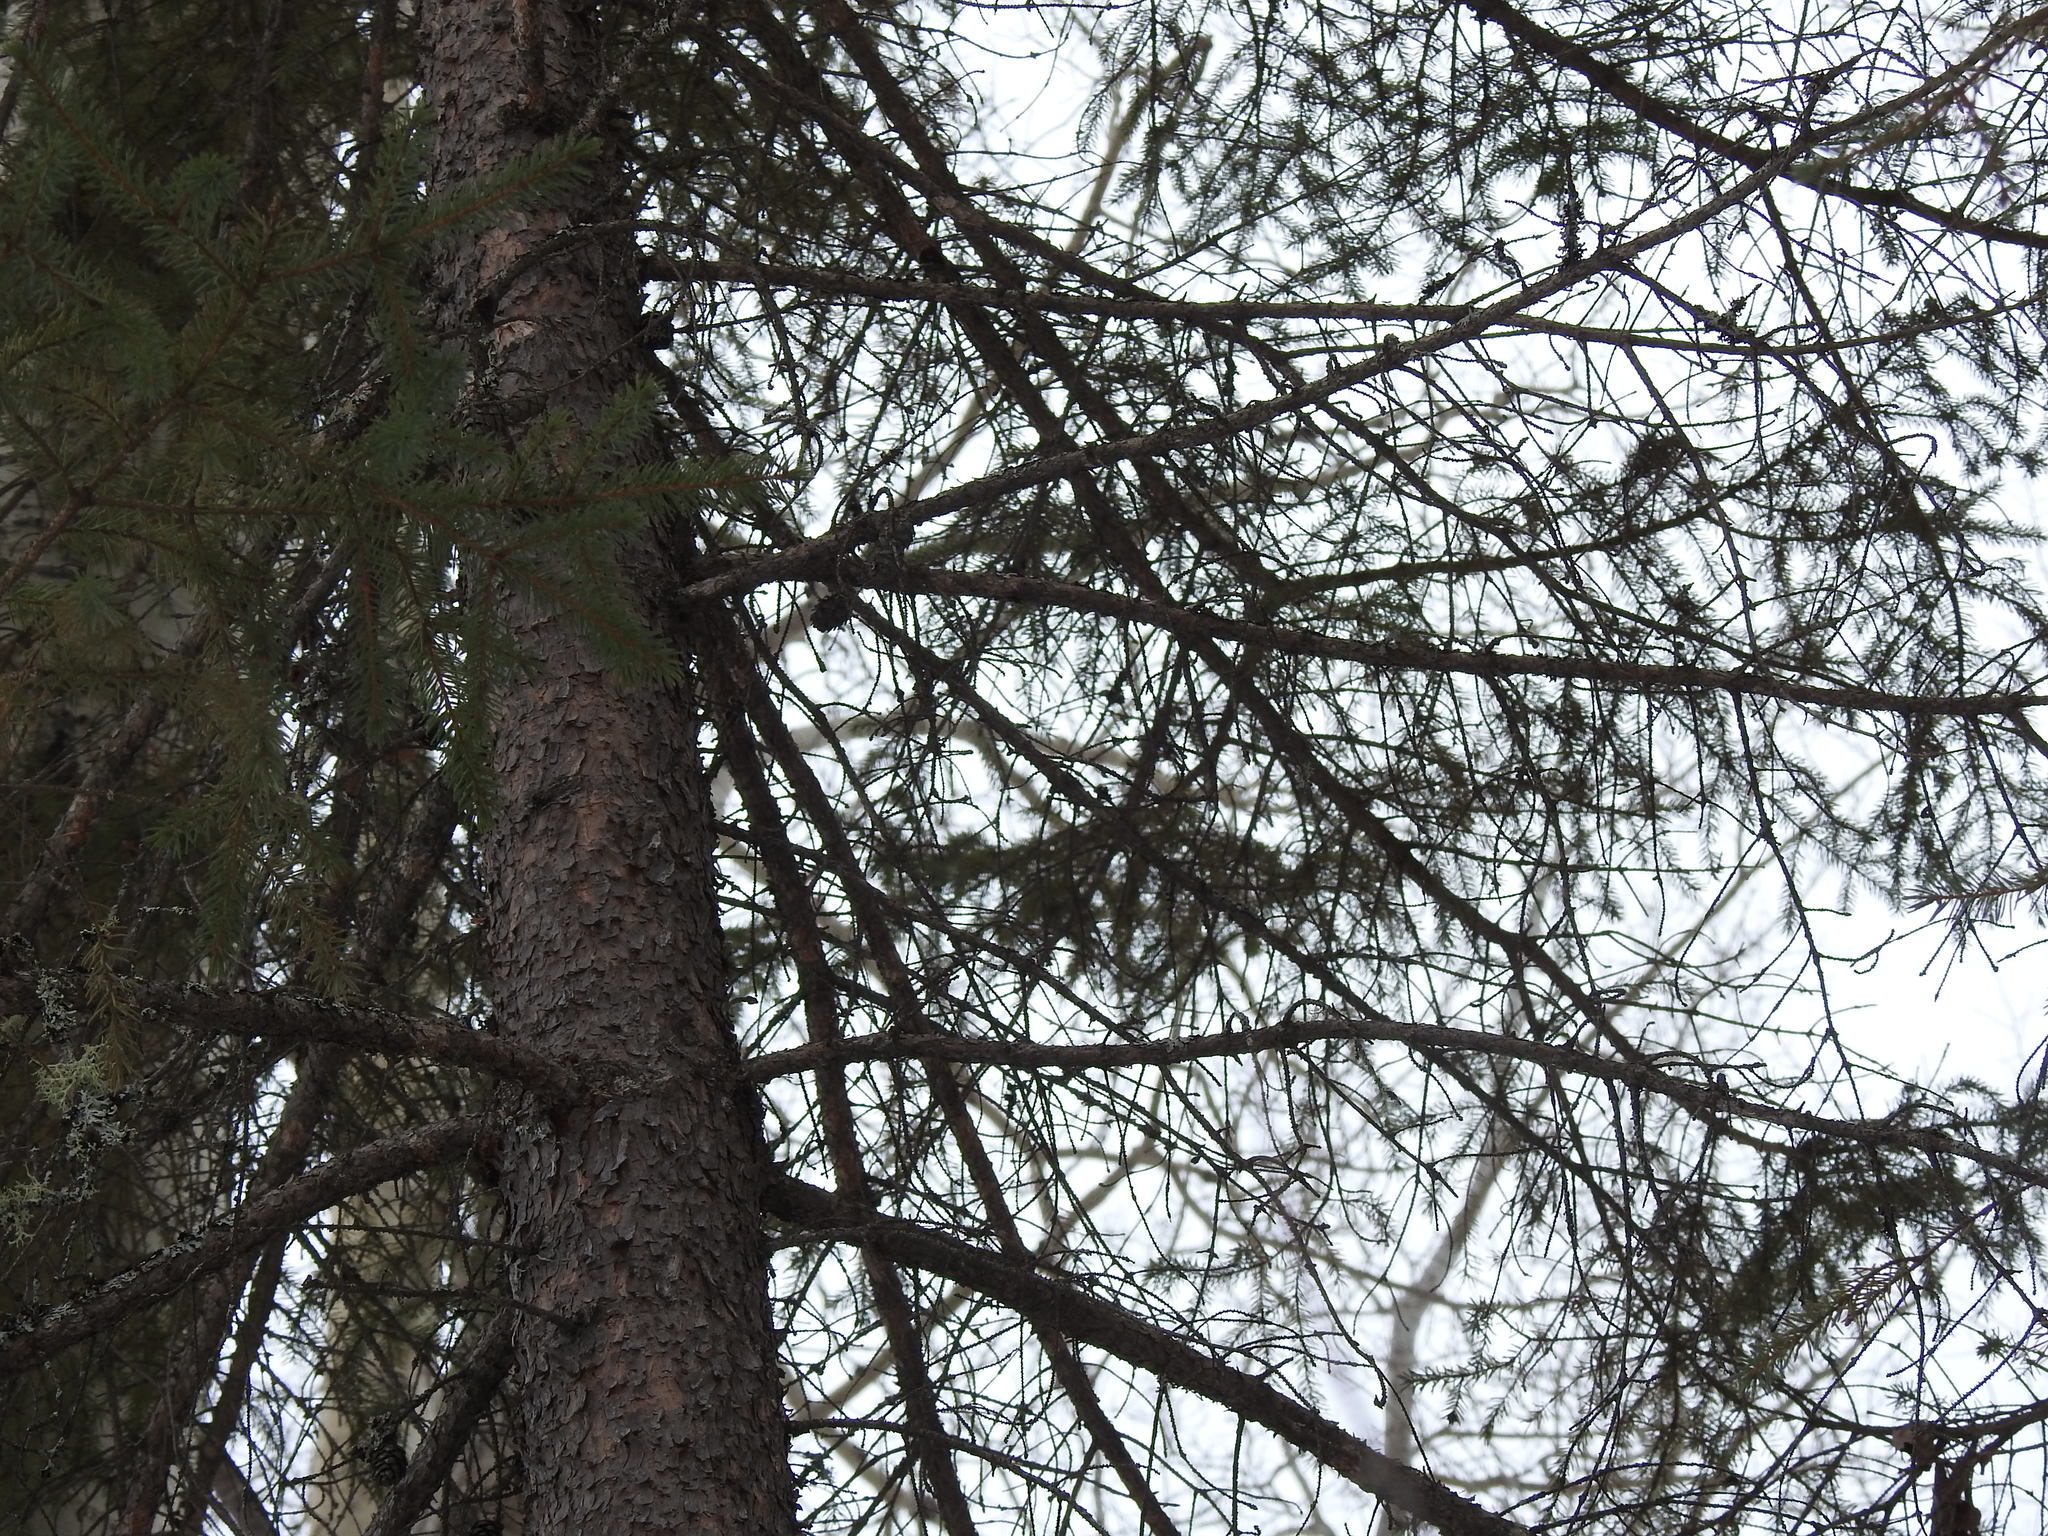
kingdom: Plantae
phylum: Tracheophyta
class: Pinopsida
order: Pinales
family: Pinaceae
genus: Picea
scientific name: Picea mariana
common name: Black spruce
